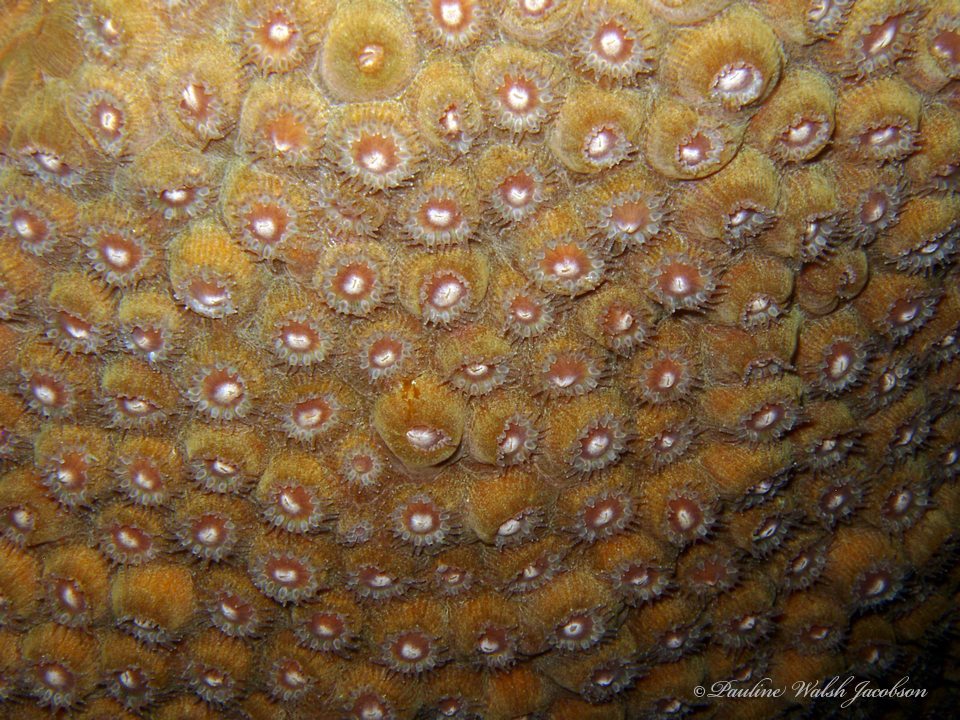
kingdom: Animalia
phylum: Cnidaria
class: Anthozoa
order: Scleractinia
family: Montastraeidae
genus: Montastraea
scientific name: Montastraea cavernosa
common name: Great star coral
